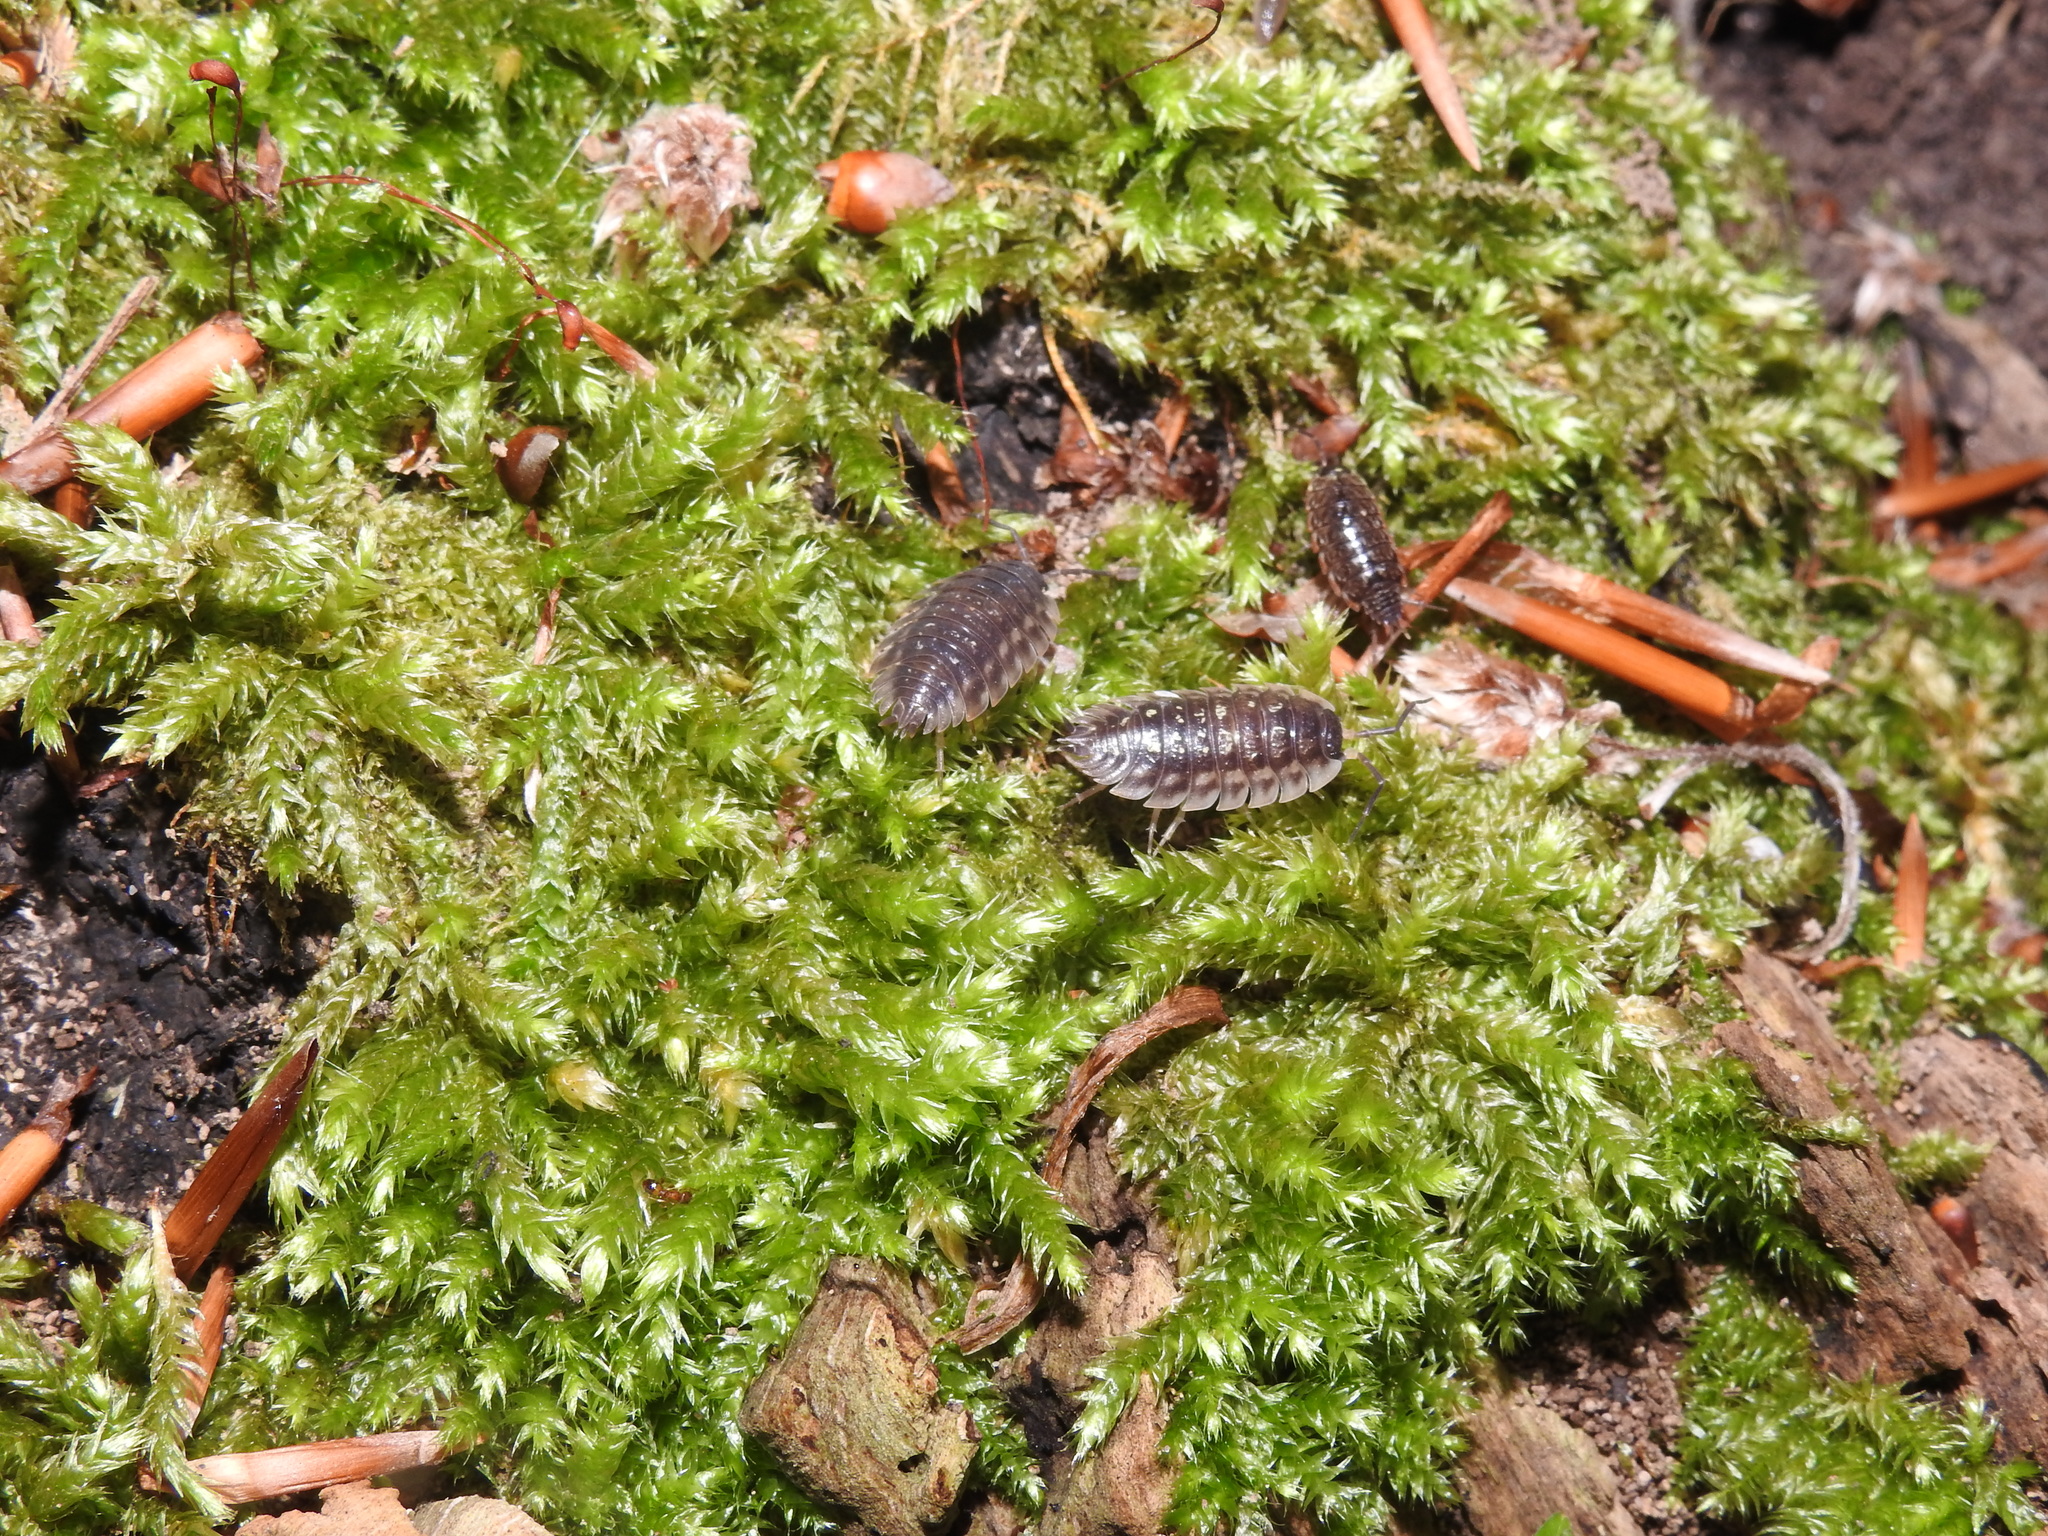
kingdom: Animalia
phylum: Arthropoda
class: Malacostraca
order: Isopoda
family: Oniscidae
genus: Oniscus
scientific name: Oniscus asellus
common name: Common shiny woodlouse
